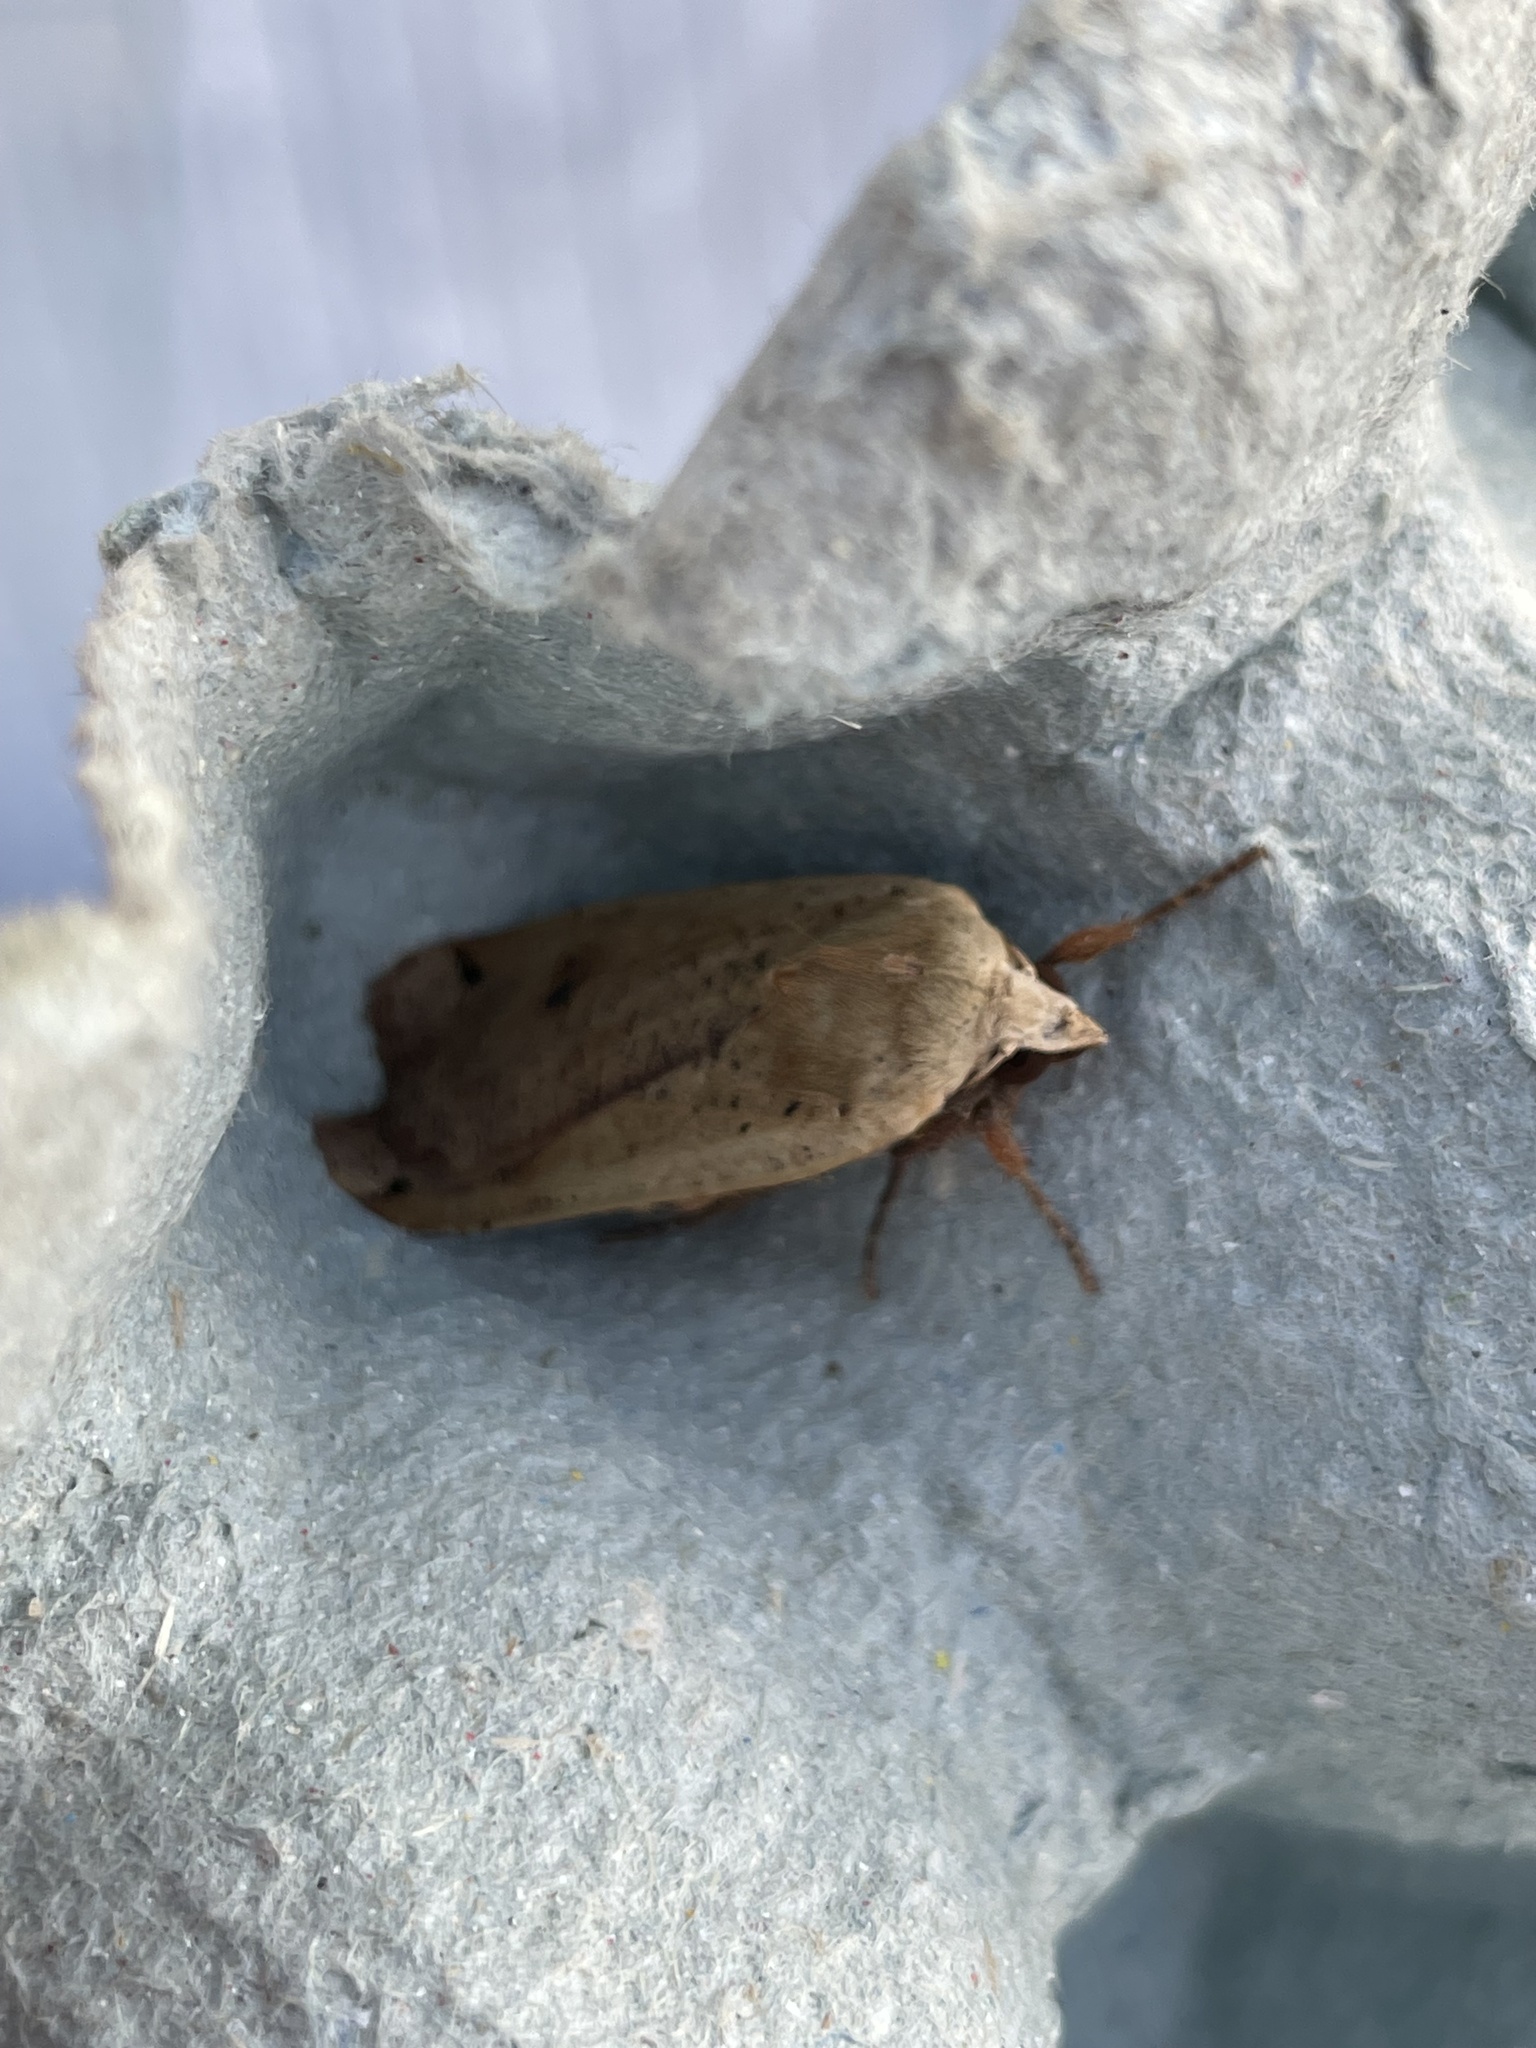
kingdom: Animalia
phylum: Arthropoda
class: Insecta
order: Lepidoptera
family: Noctuidae
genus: Noctua
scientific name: Noctua pronuba
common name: Large yellow underwing
